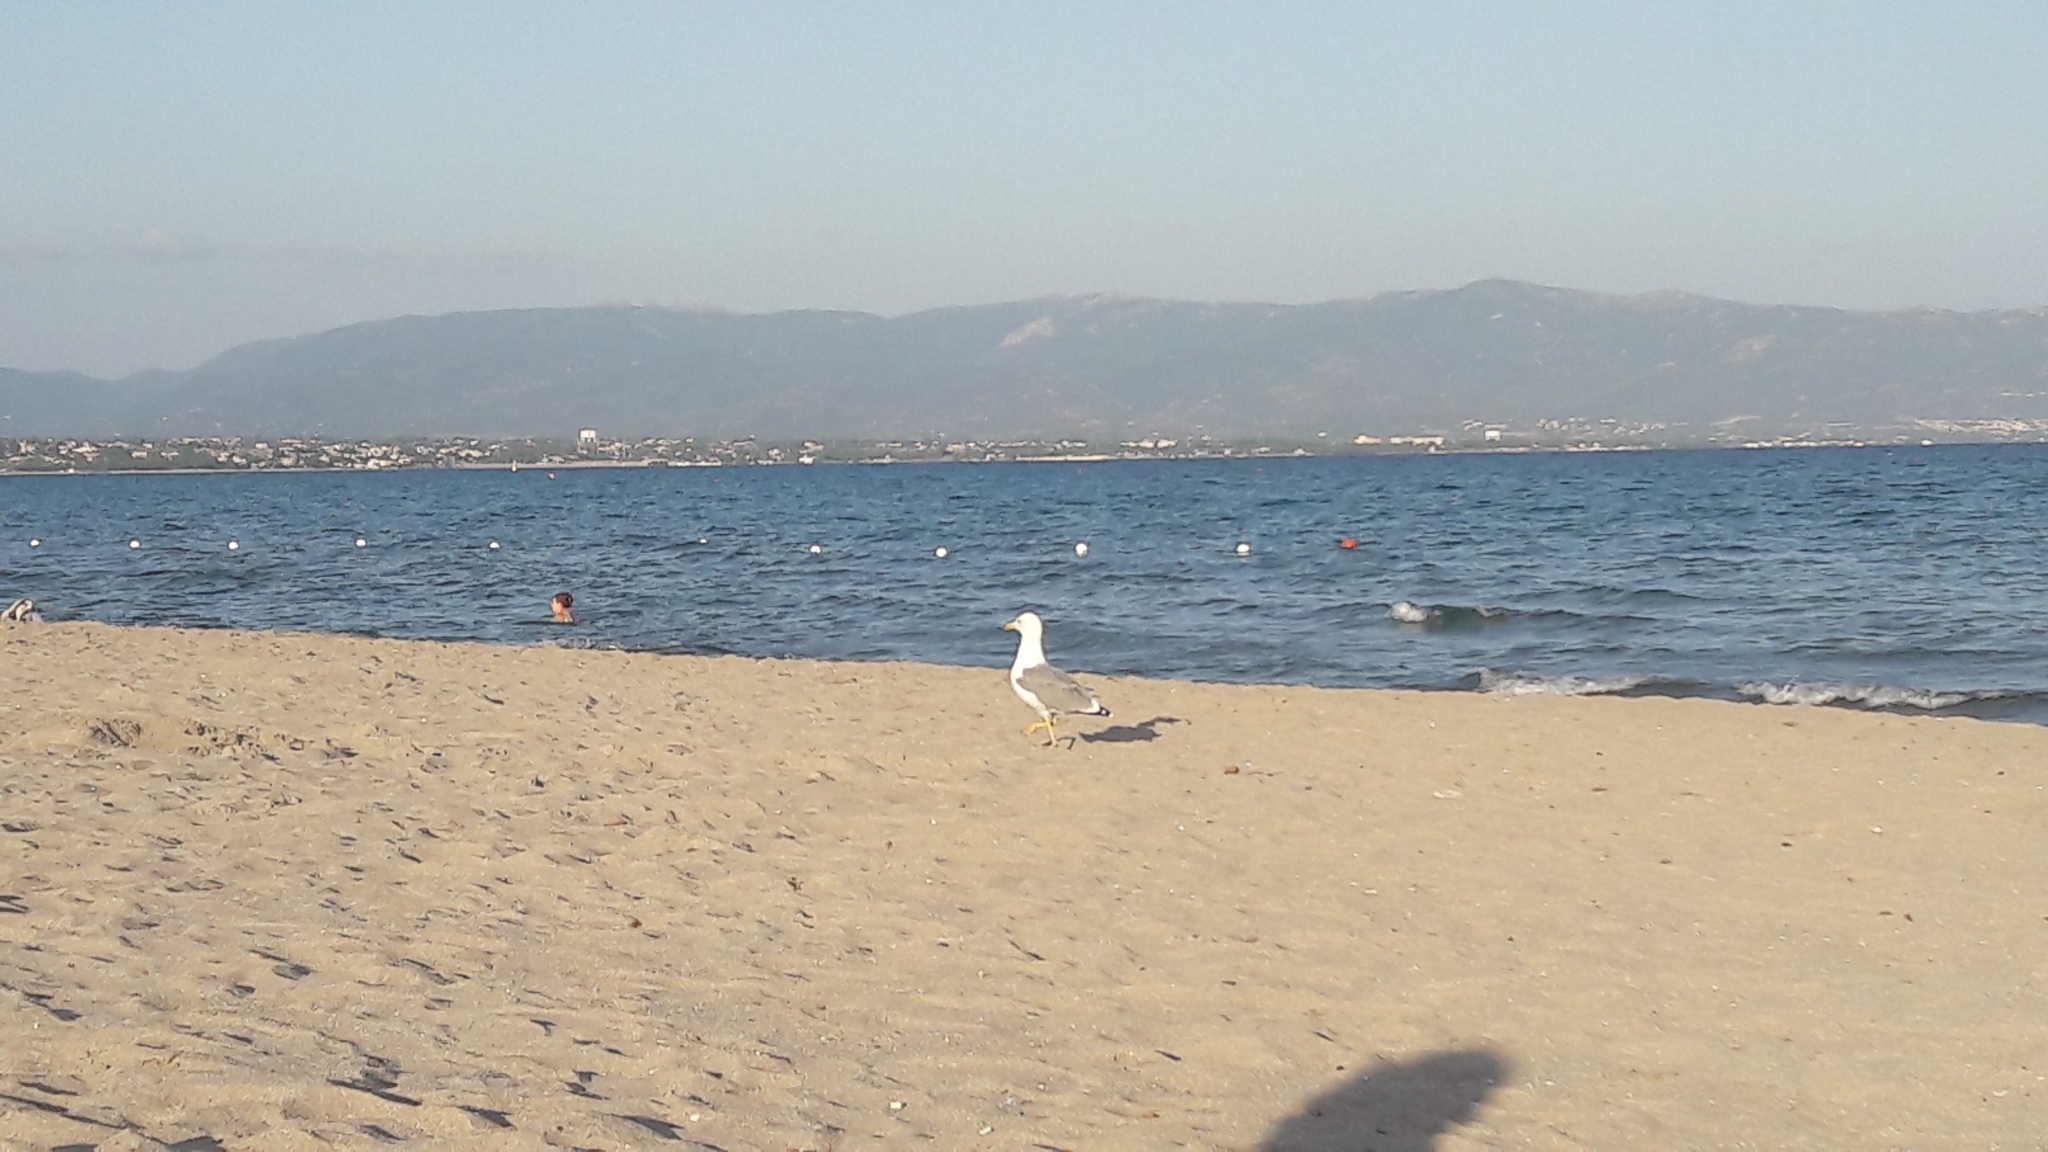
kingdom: Animalia
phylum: Chordata
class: Aves
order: Charadriiformes
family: Laridae
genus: Larus
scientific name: Larus michahellis
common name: Yellow-legged gull
